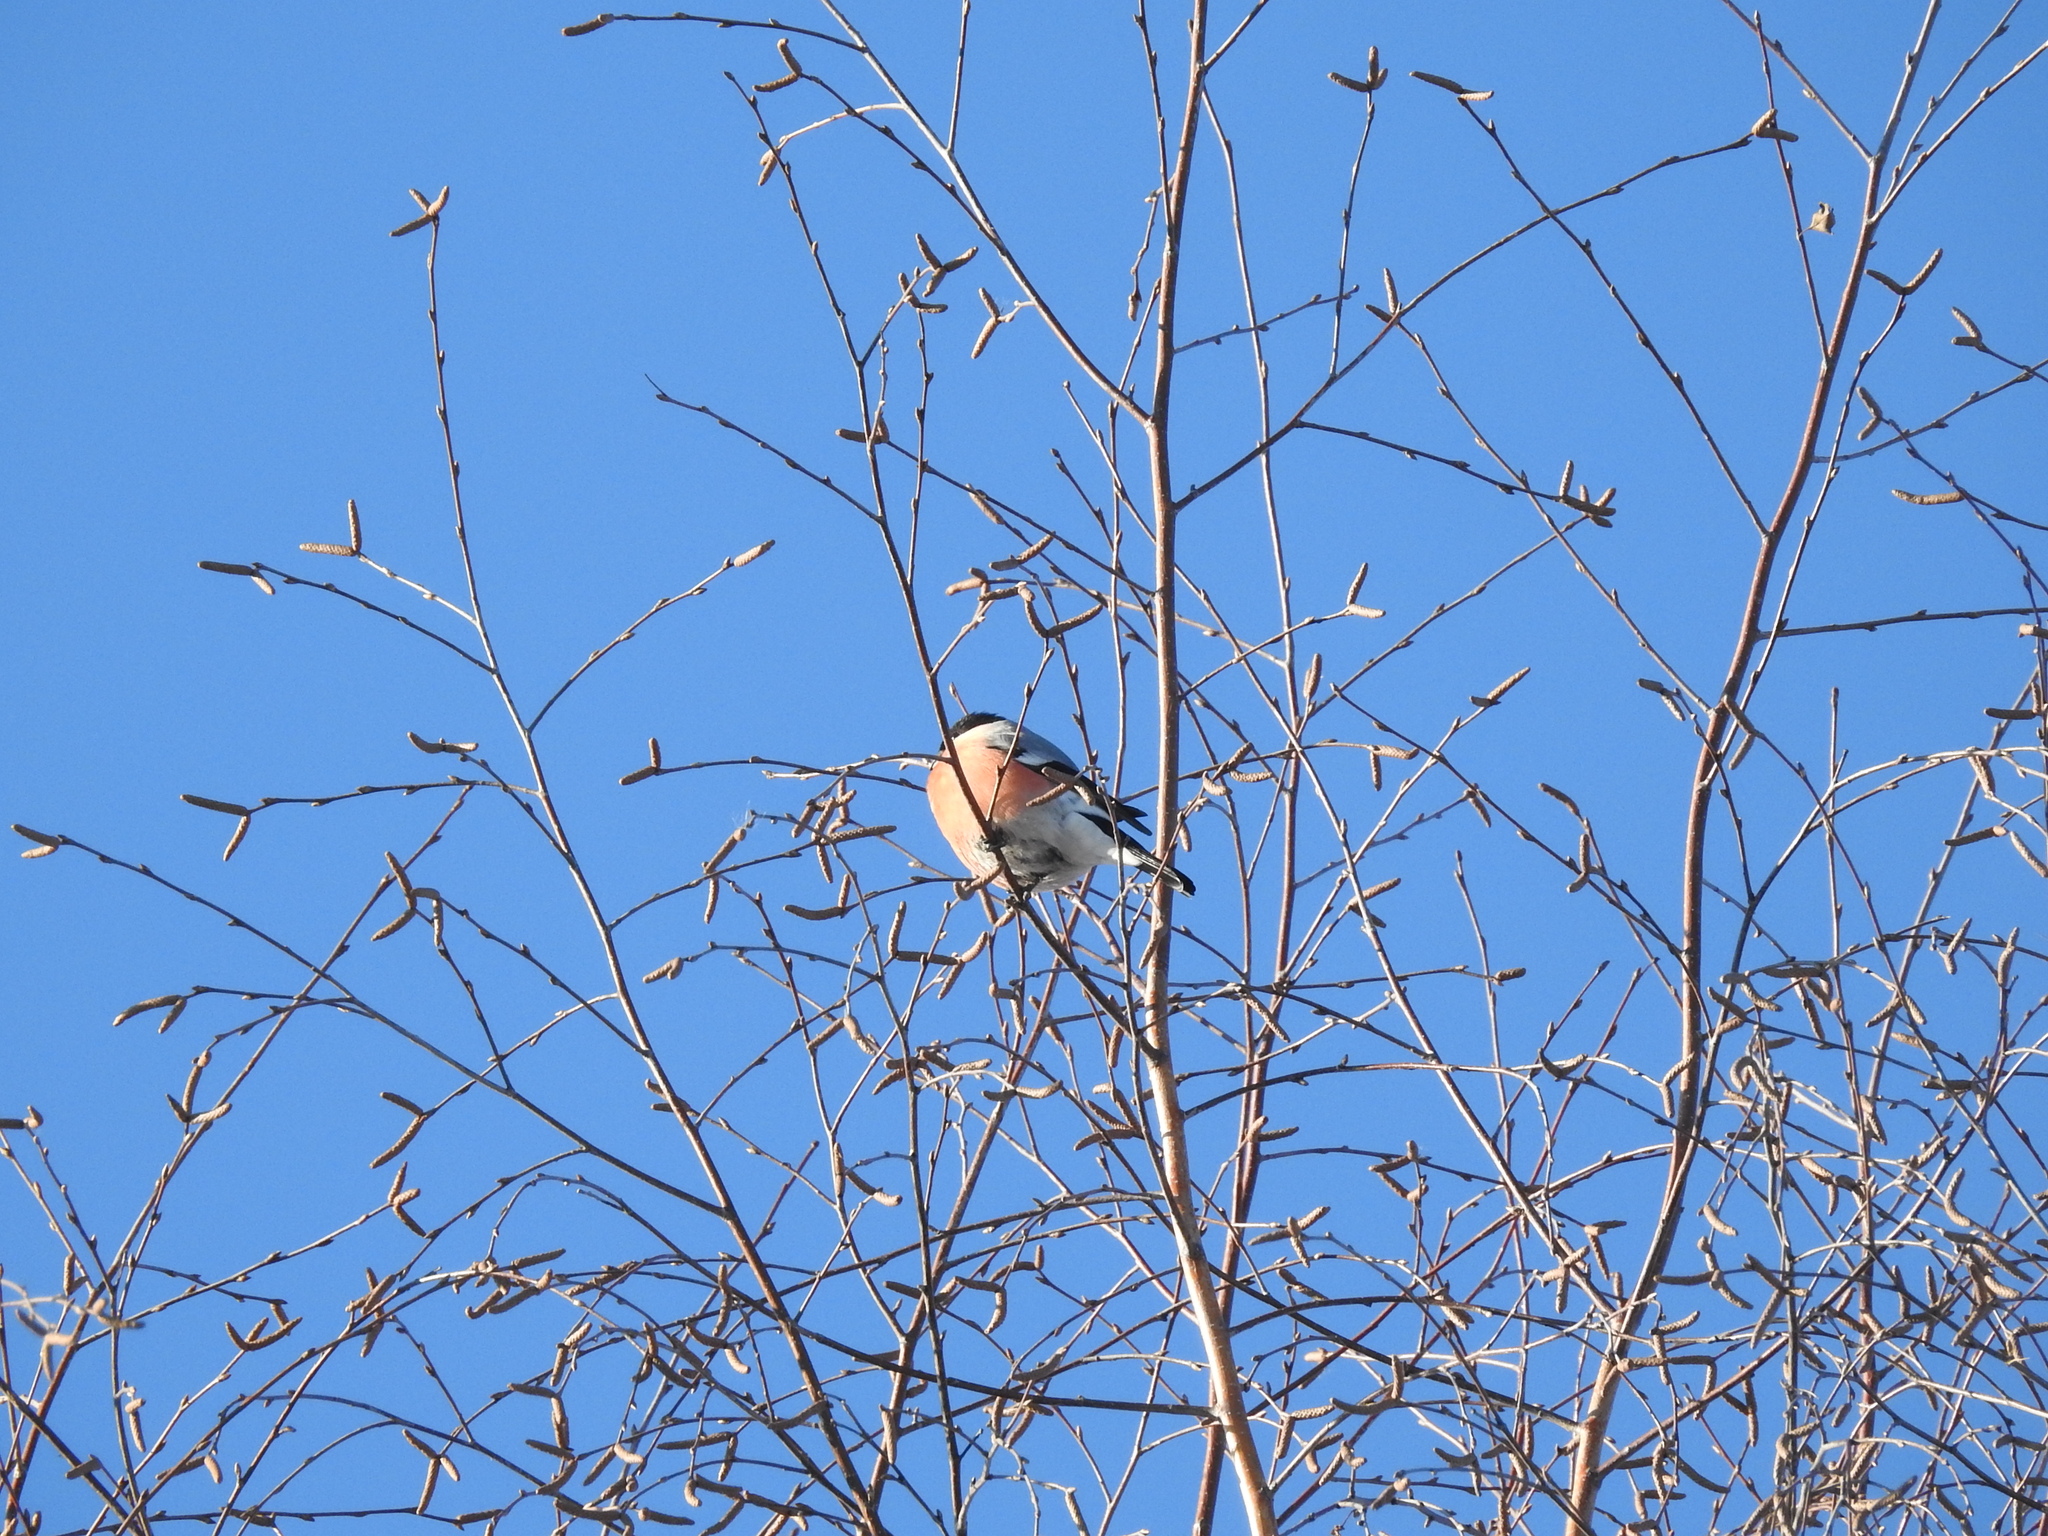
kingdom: Animalia
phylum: Chordata
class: Aves
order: Passeriformes
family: Fringillidae
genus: Pyrrhula
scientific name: Pyrrhula pyrrhula
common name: Eurasian bullfinch
